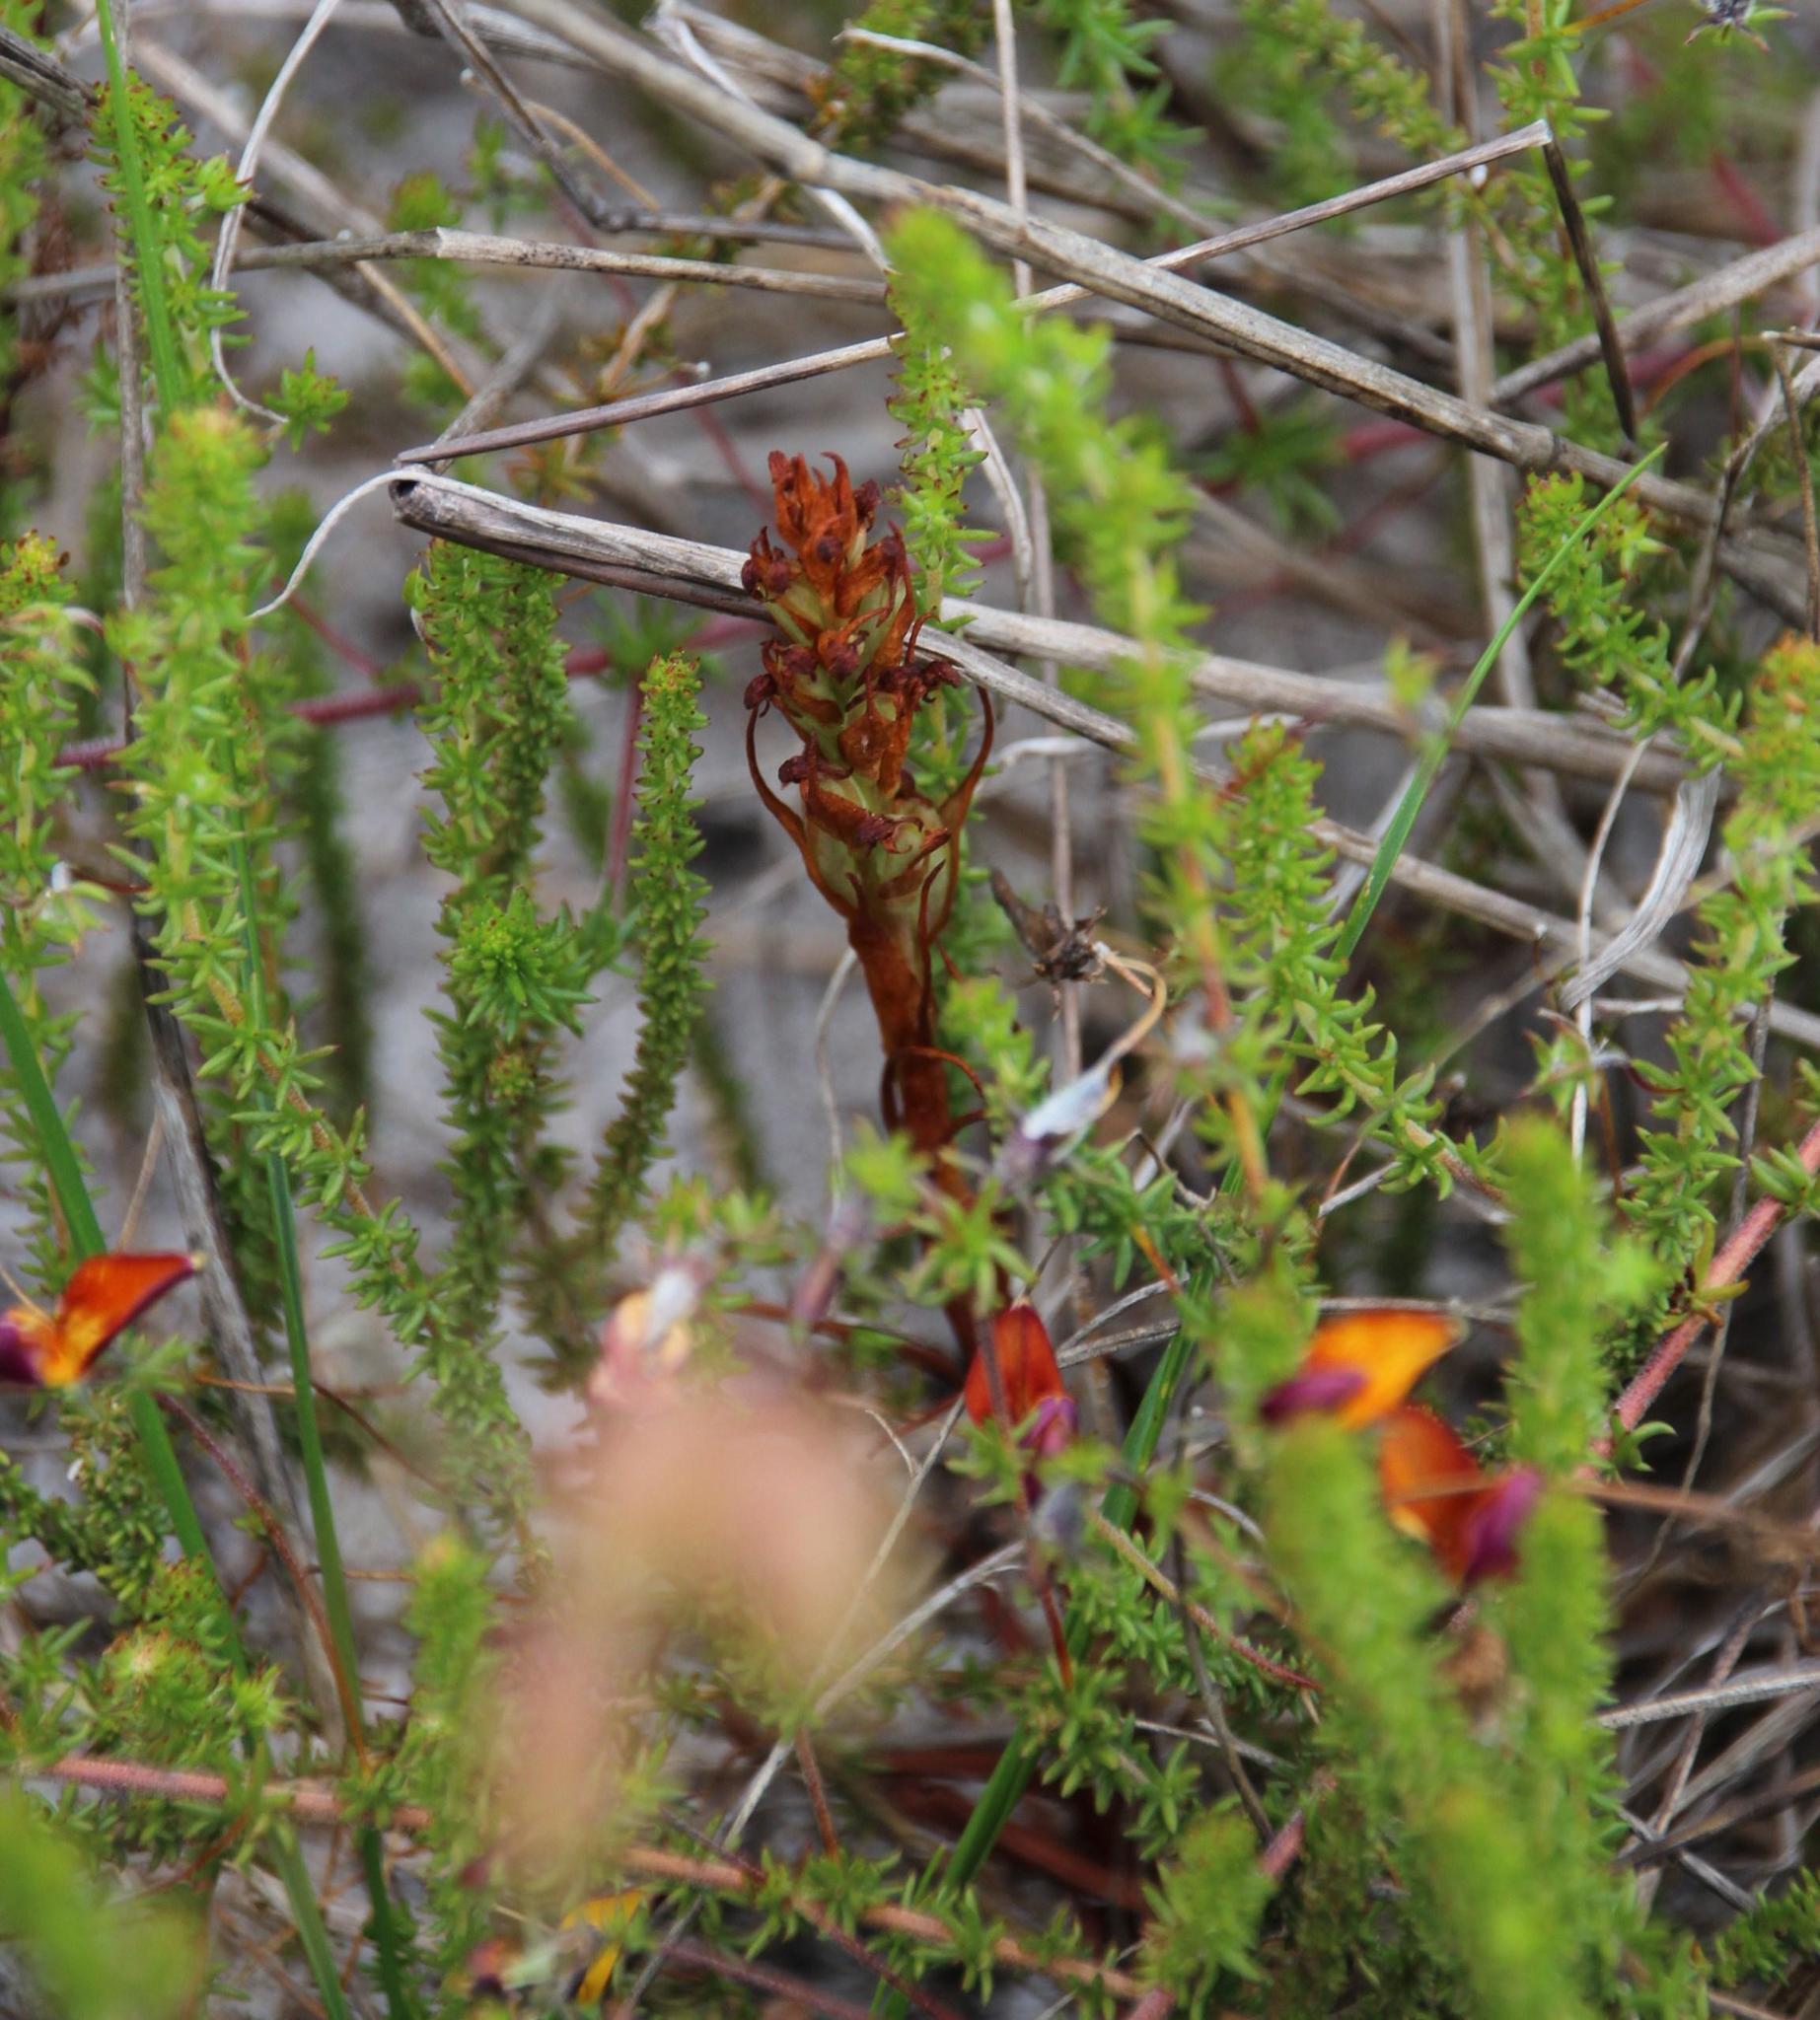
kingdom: Plantae
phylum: Tracheophyta
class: Liliopsida
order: Asparagales
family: Orchidaceae
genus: Disa
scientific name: Disa bracteata
